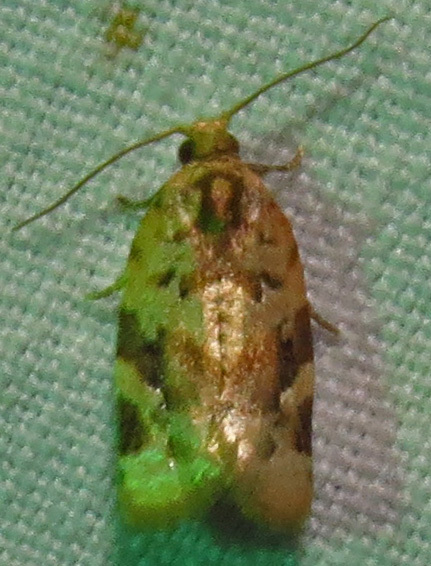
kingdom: Animalia
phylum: Arthropoda
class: Insecta
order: Lepidoptera
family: Tortricidae
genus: Argyrotaenia
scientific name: Argyrotaenia velutinana
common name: Red-banded leafroller moth
